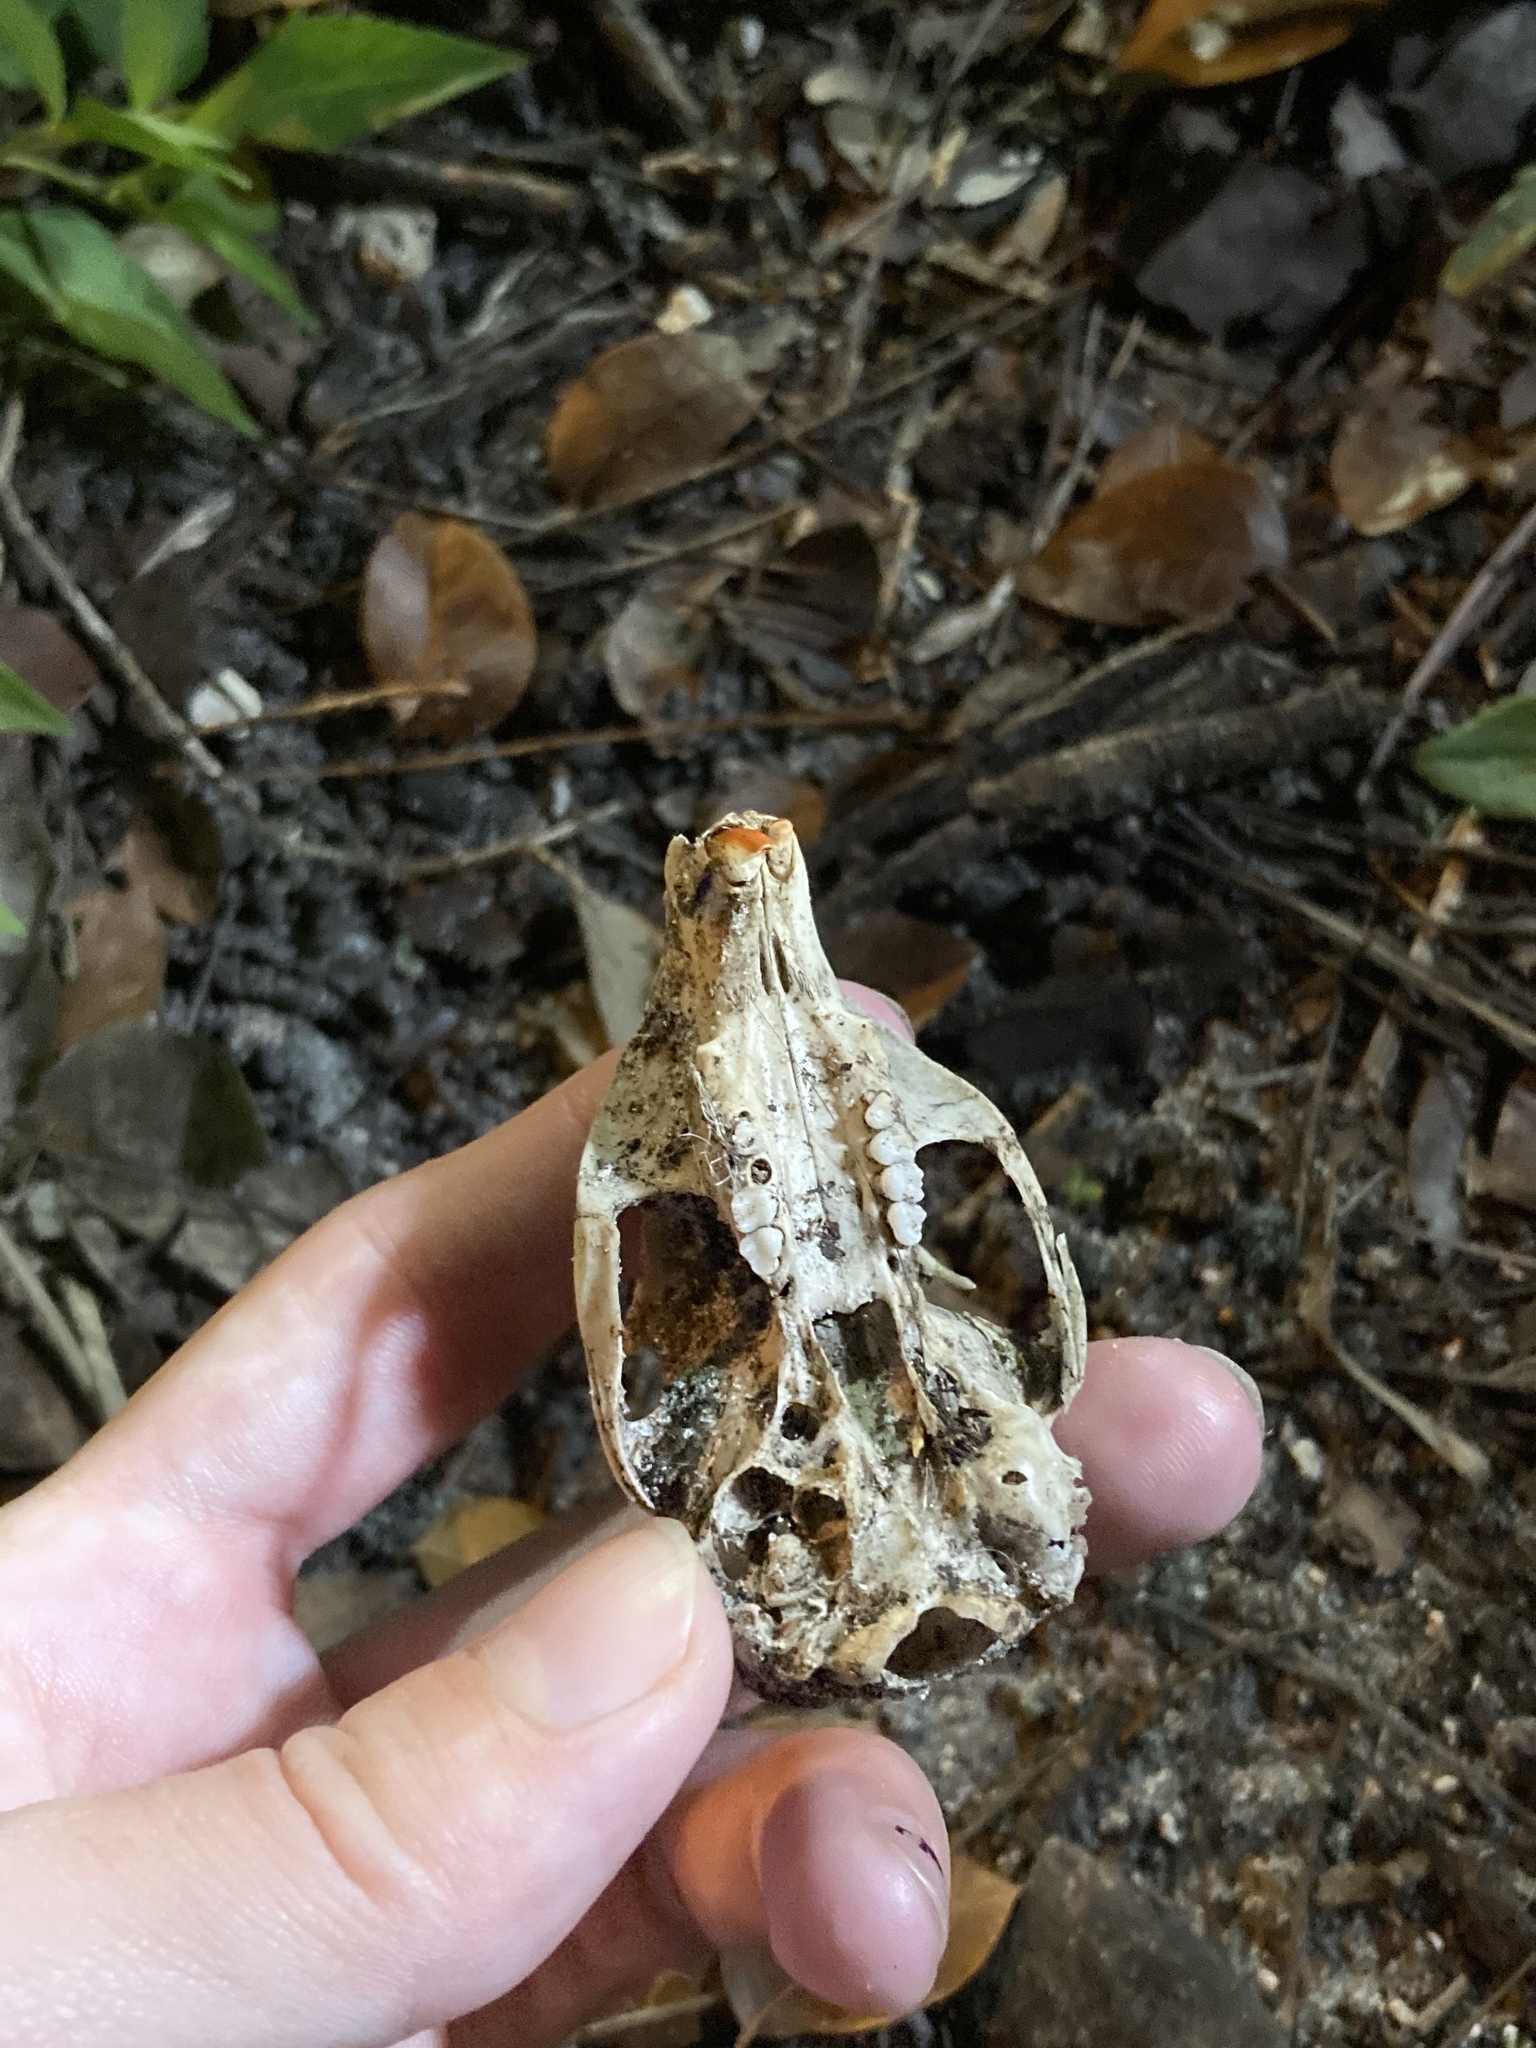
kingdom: Animalia
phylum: Chordata
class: Mammalia
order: Rodentia
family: Sciuridae
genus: Sciurus
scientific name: Sciurus carolinensis
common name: Eastern gray squirrel
